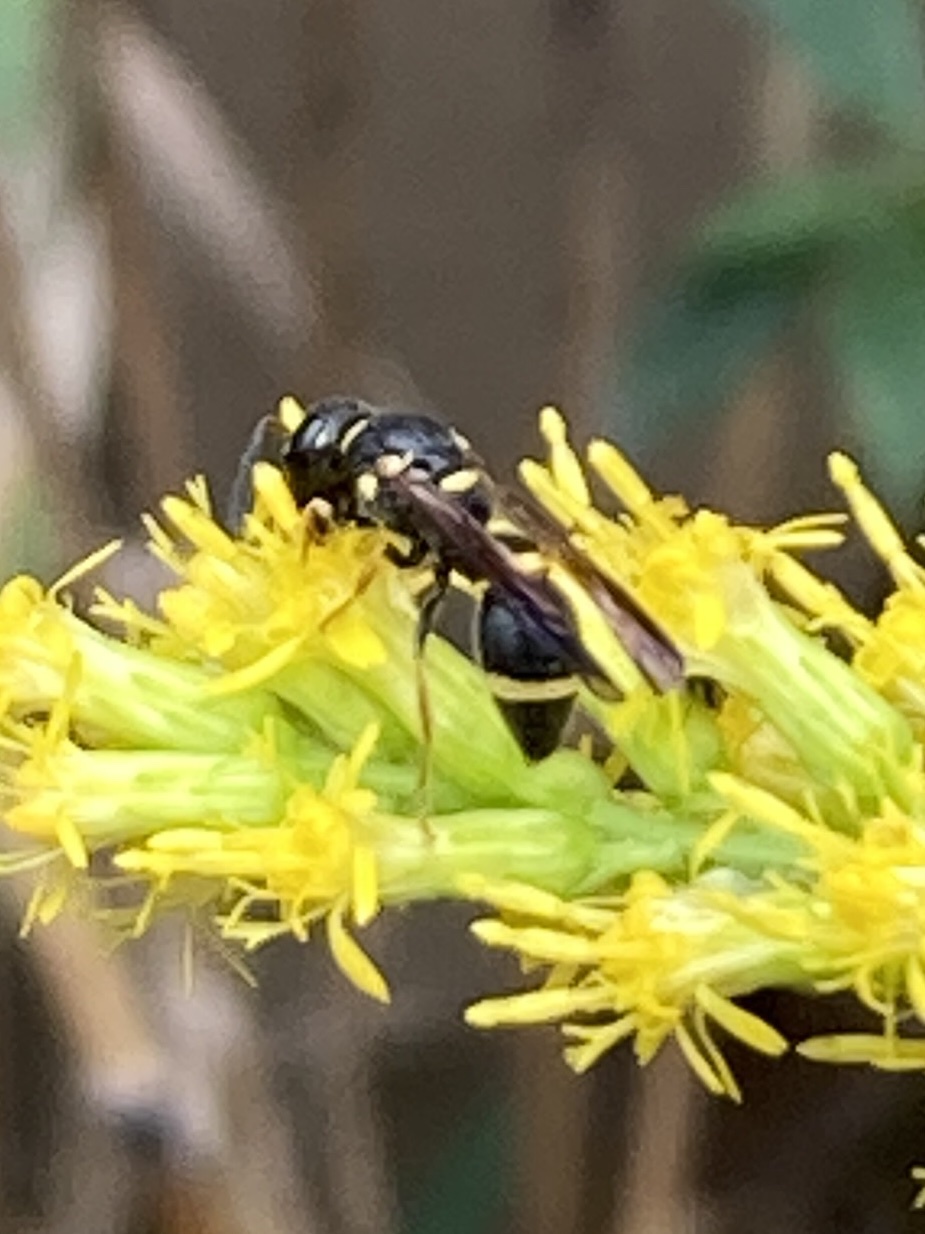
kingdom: Animalia
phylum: Arthropoda
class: Insecta
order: Hymenoptera
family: Eumenidae
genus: Parancistrocerus
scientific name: Parancistrocerus perennis
